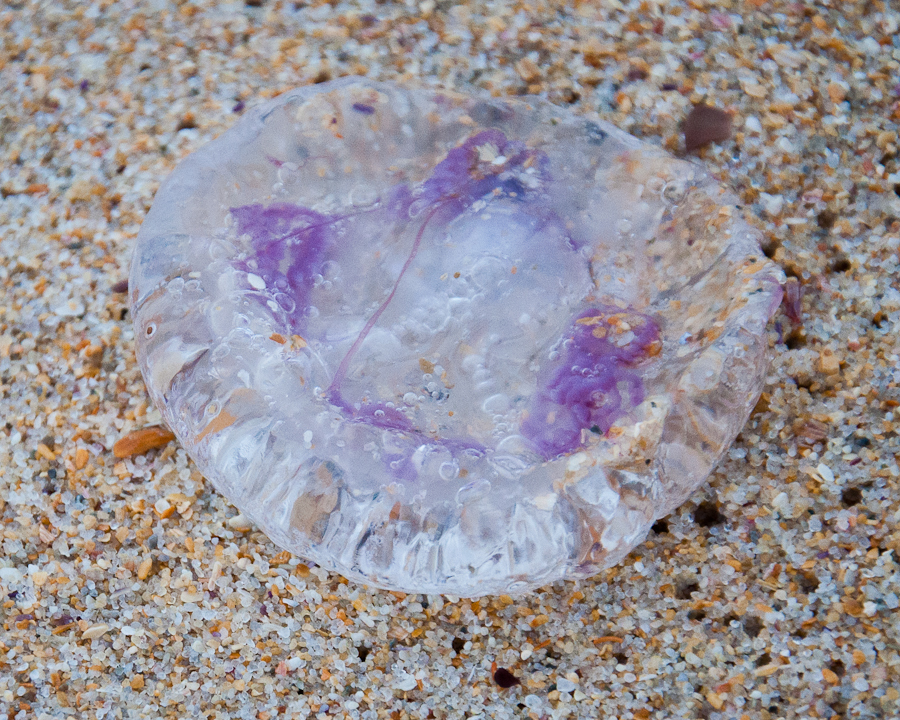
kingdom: Animalia
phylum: Cnidaria
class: Scyphozoa
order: Semaeostomeae
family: Pelagiidae
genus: Pelagia
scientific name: Pelagia noctiluca
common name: Mauve stinger
